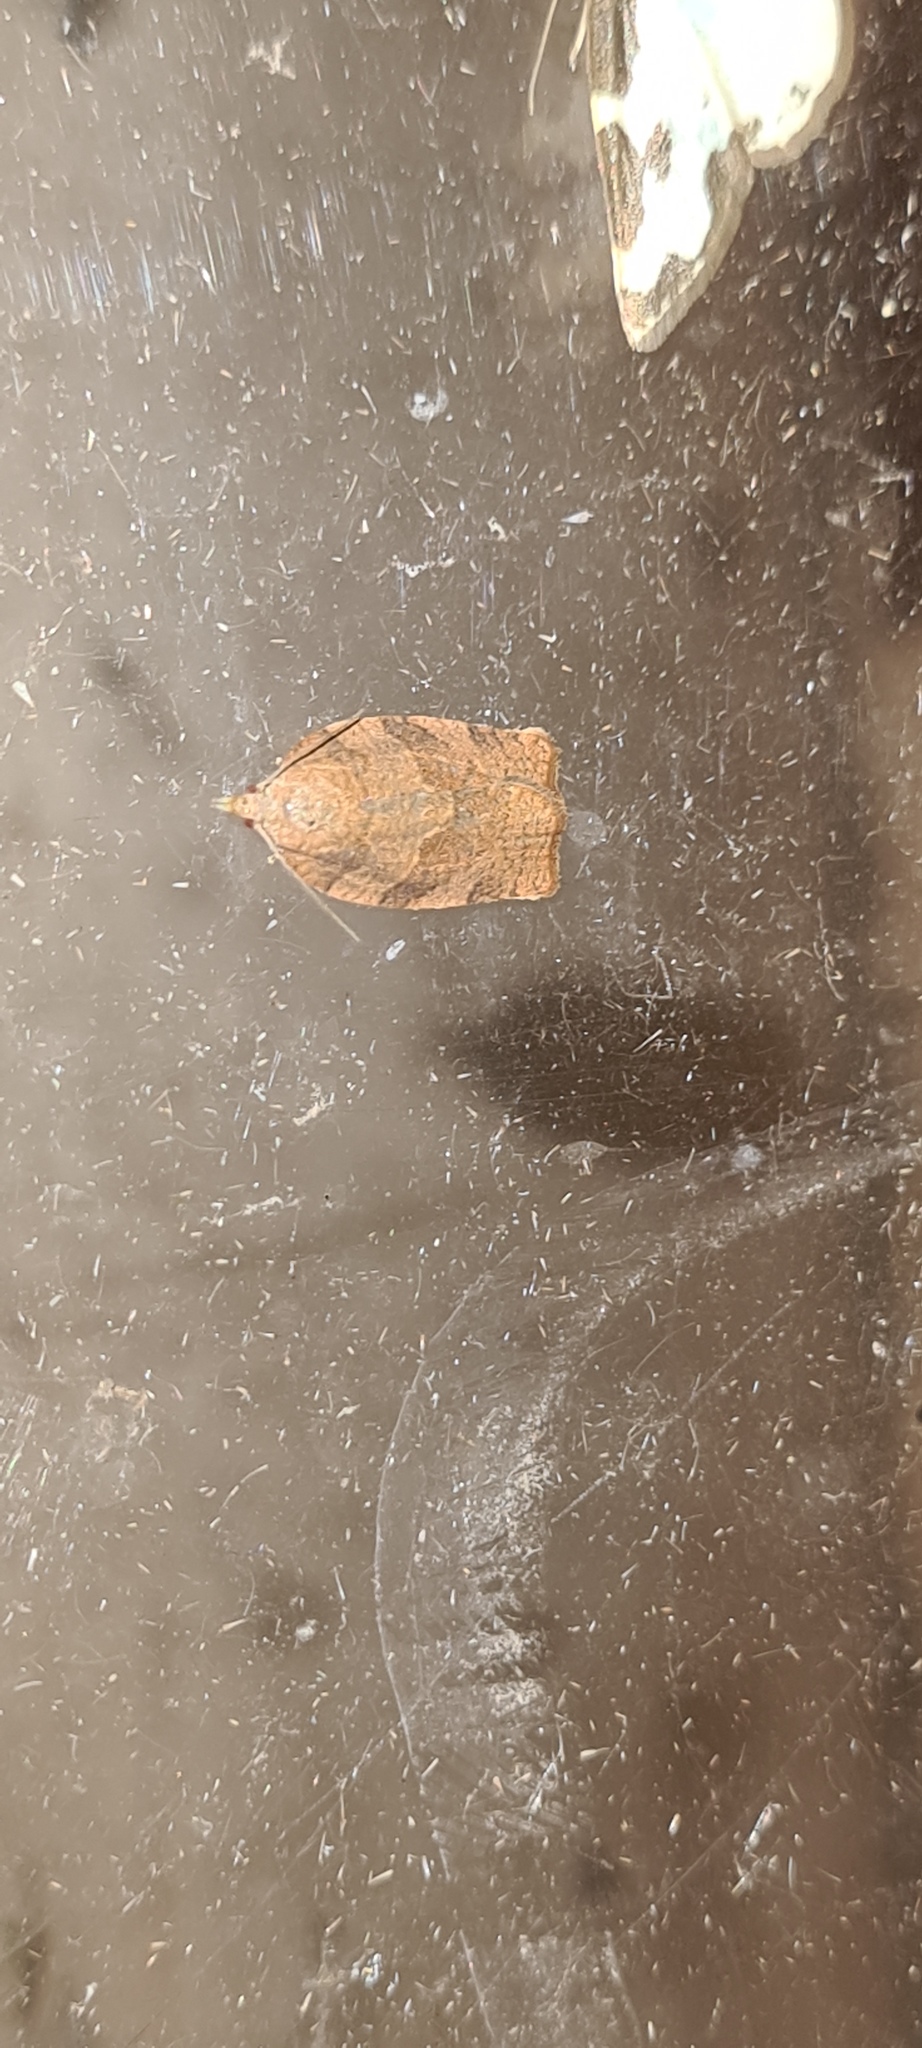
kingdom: Animalia
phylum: Arthropoda
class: Insecta
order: Lepidoptera
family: Tortricidae
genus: Pandemis
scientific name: Pandemis heparana
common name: Dark fruit-tree tortrix
